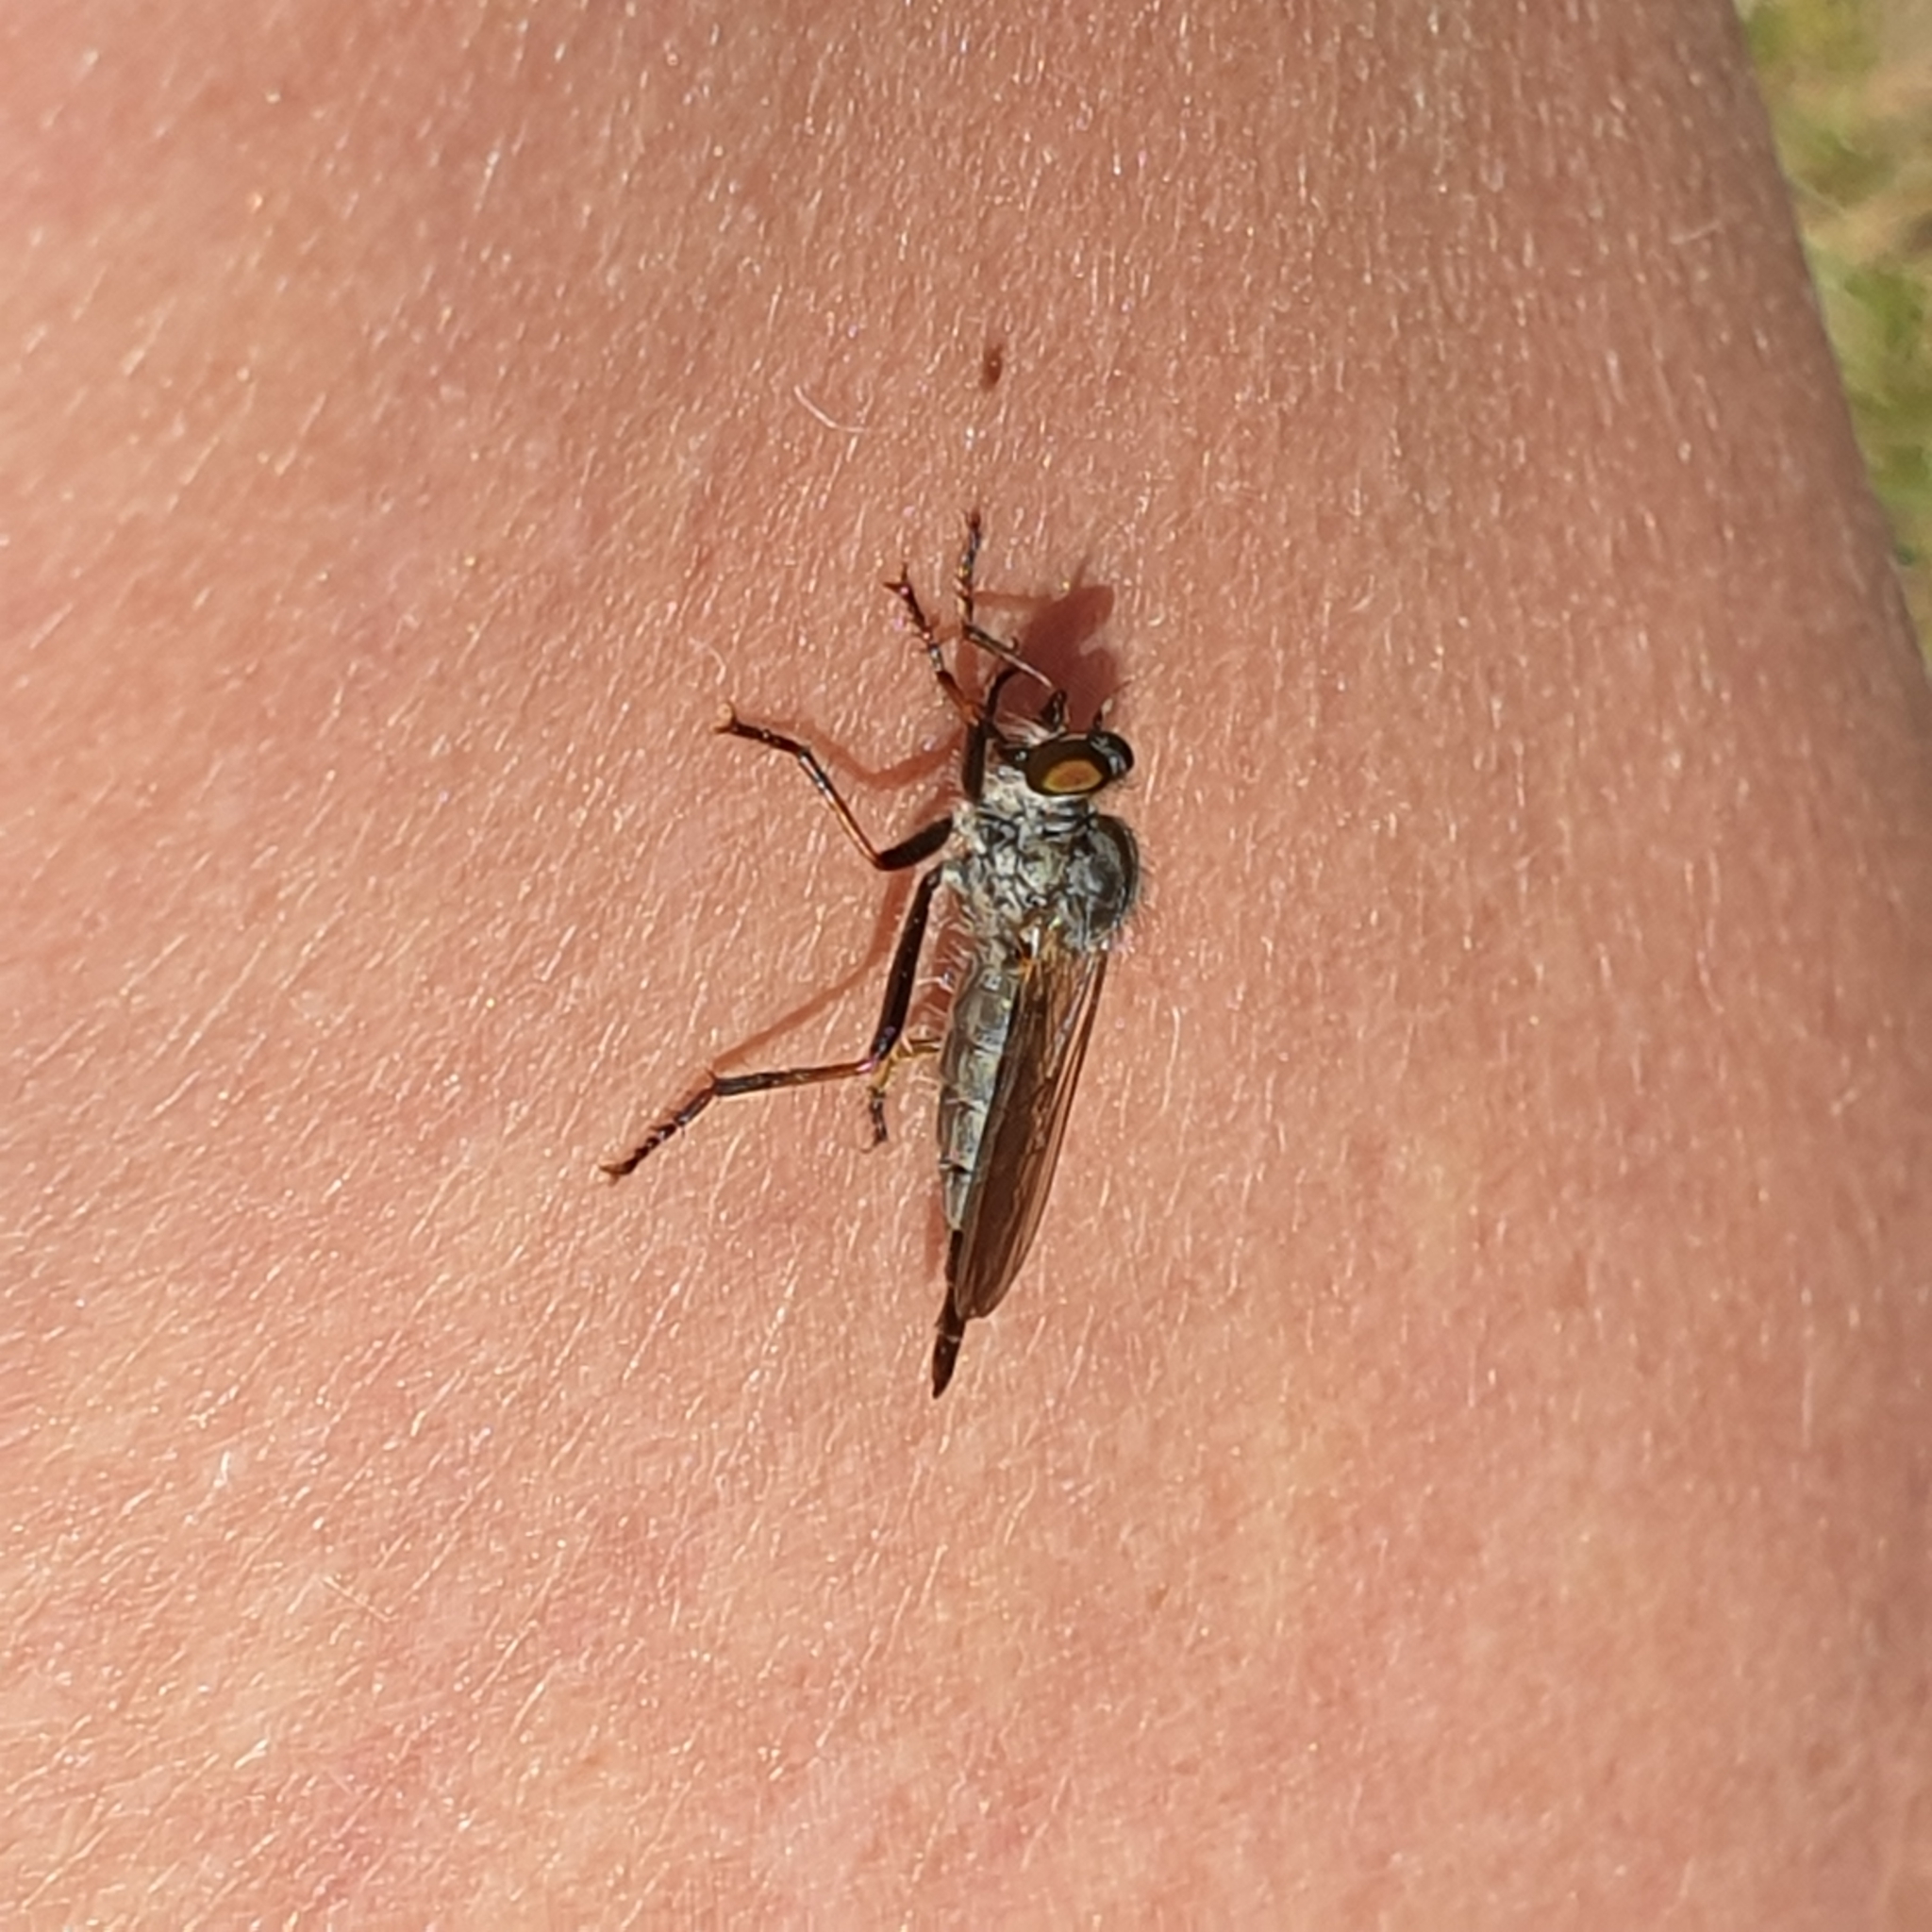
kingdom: Animalia
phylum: Arthropoda
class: Insecta
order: Diptera
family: Asilidae
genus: Neoitamus
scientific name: Neoitamus socius
